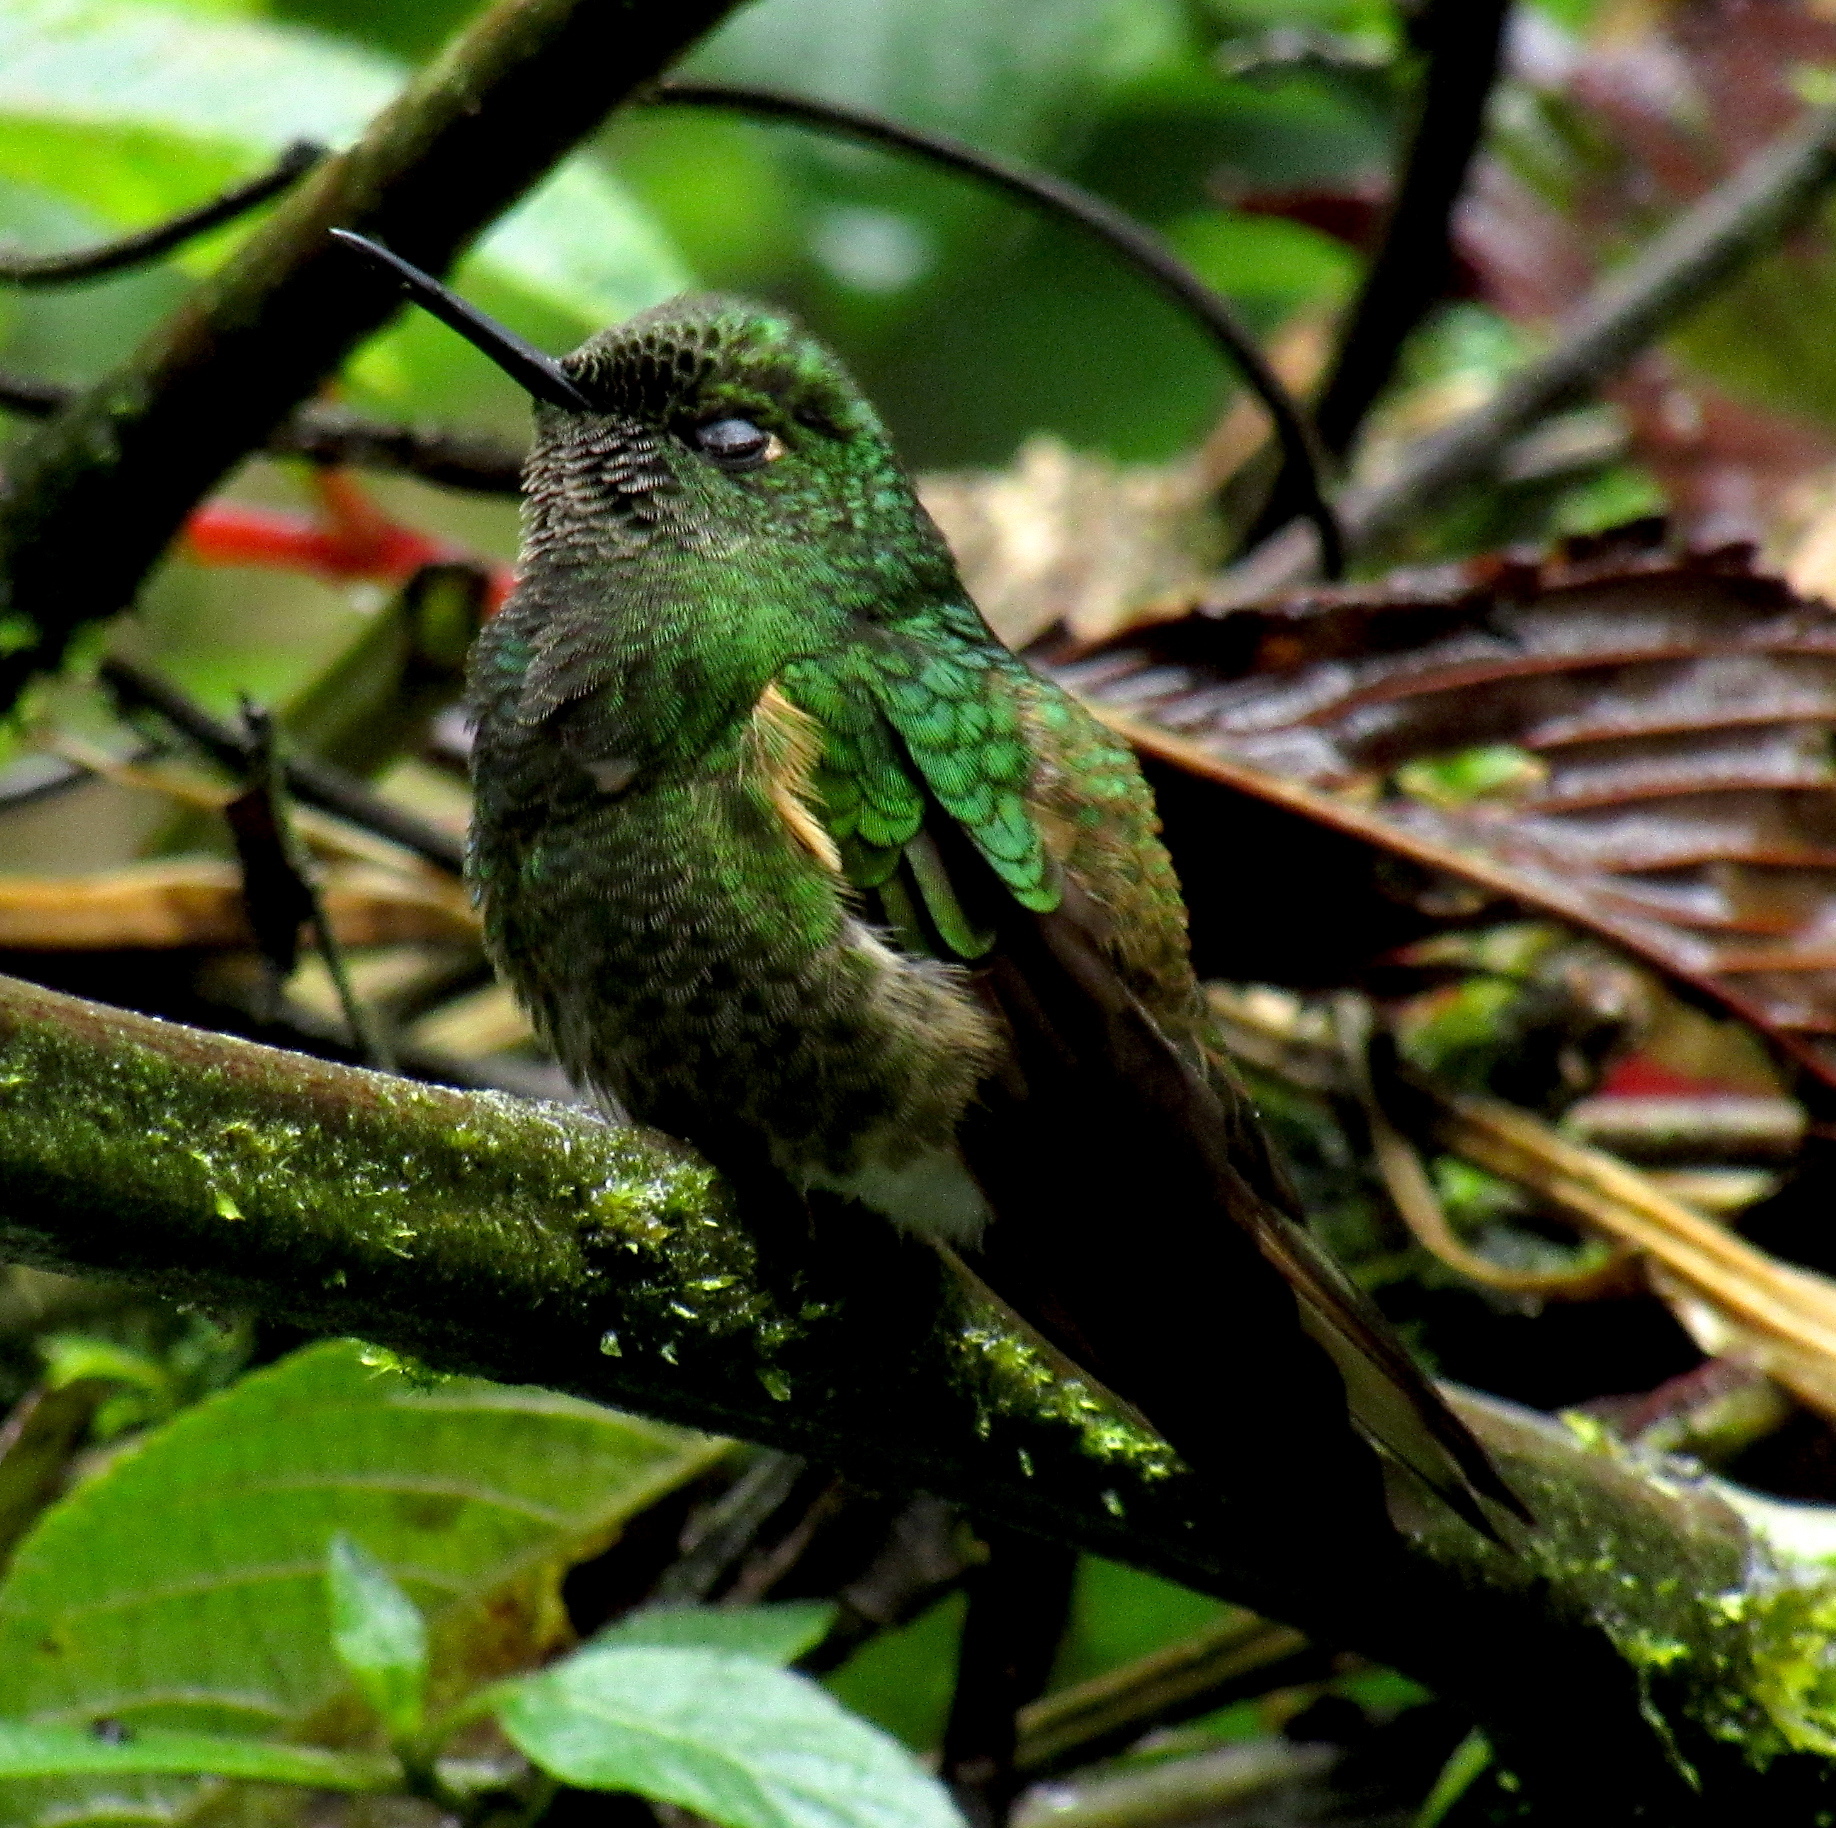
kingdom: Animalia
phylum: Chordata
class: Aves
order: Apodiformes
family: Trochilidae
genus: Boissonneaua
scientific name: Boissonneaua flavescens
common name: Buff-tailed coronet
